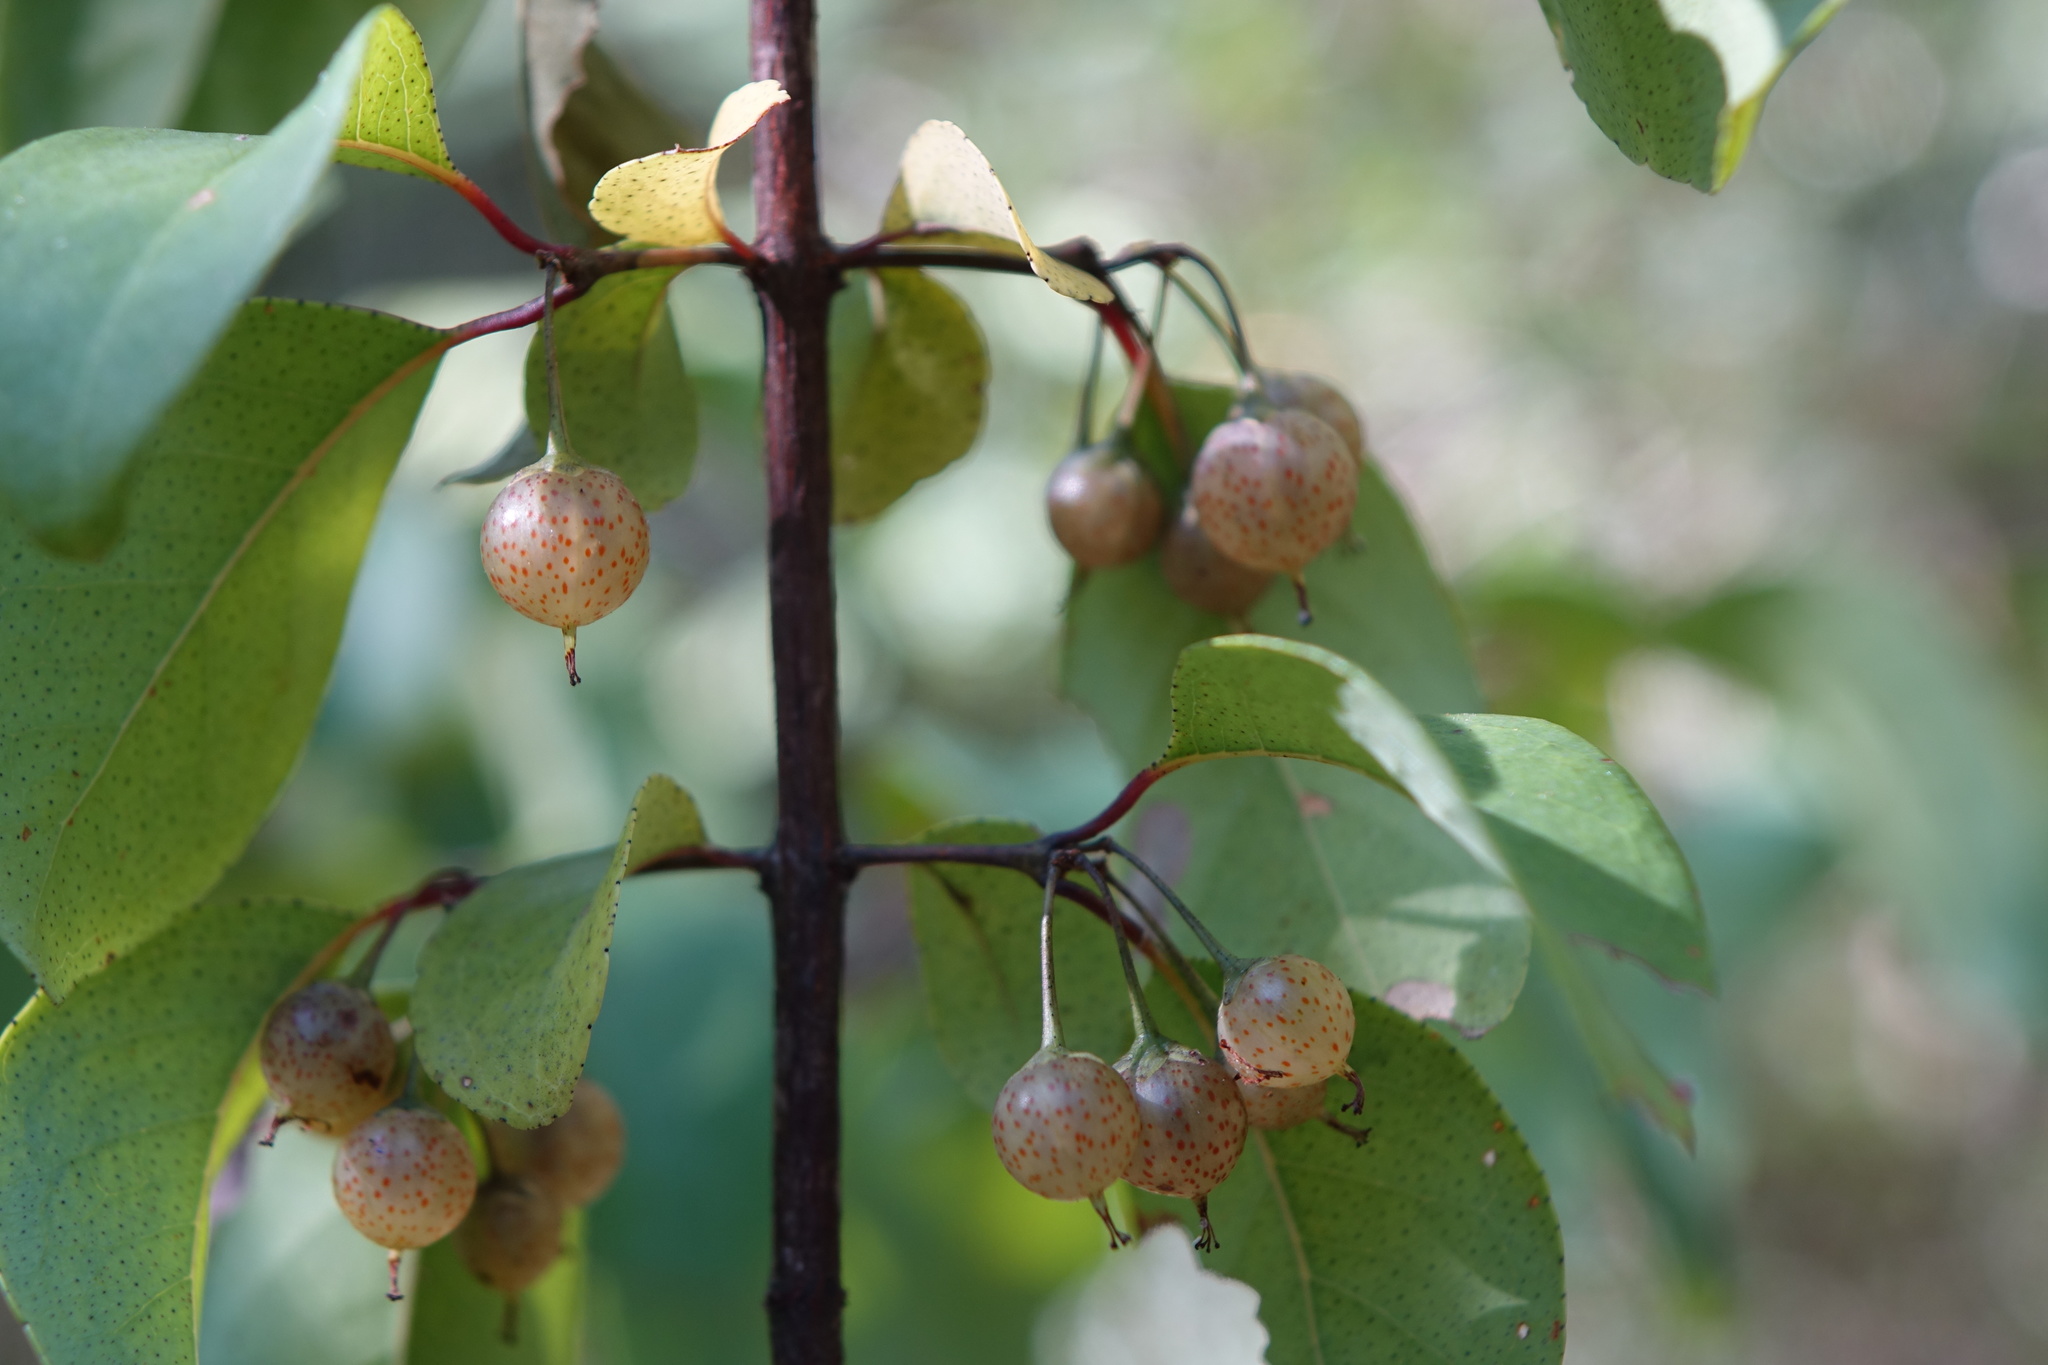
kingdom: Plantae
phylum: Tracheophyta
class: Magnoliopsida
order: Malpighiales
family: Hypericaceae
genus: Psorospermum
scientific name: Psorospermum malifolium
